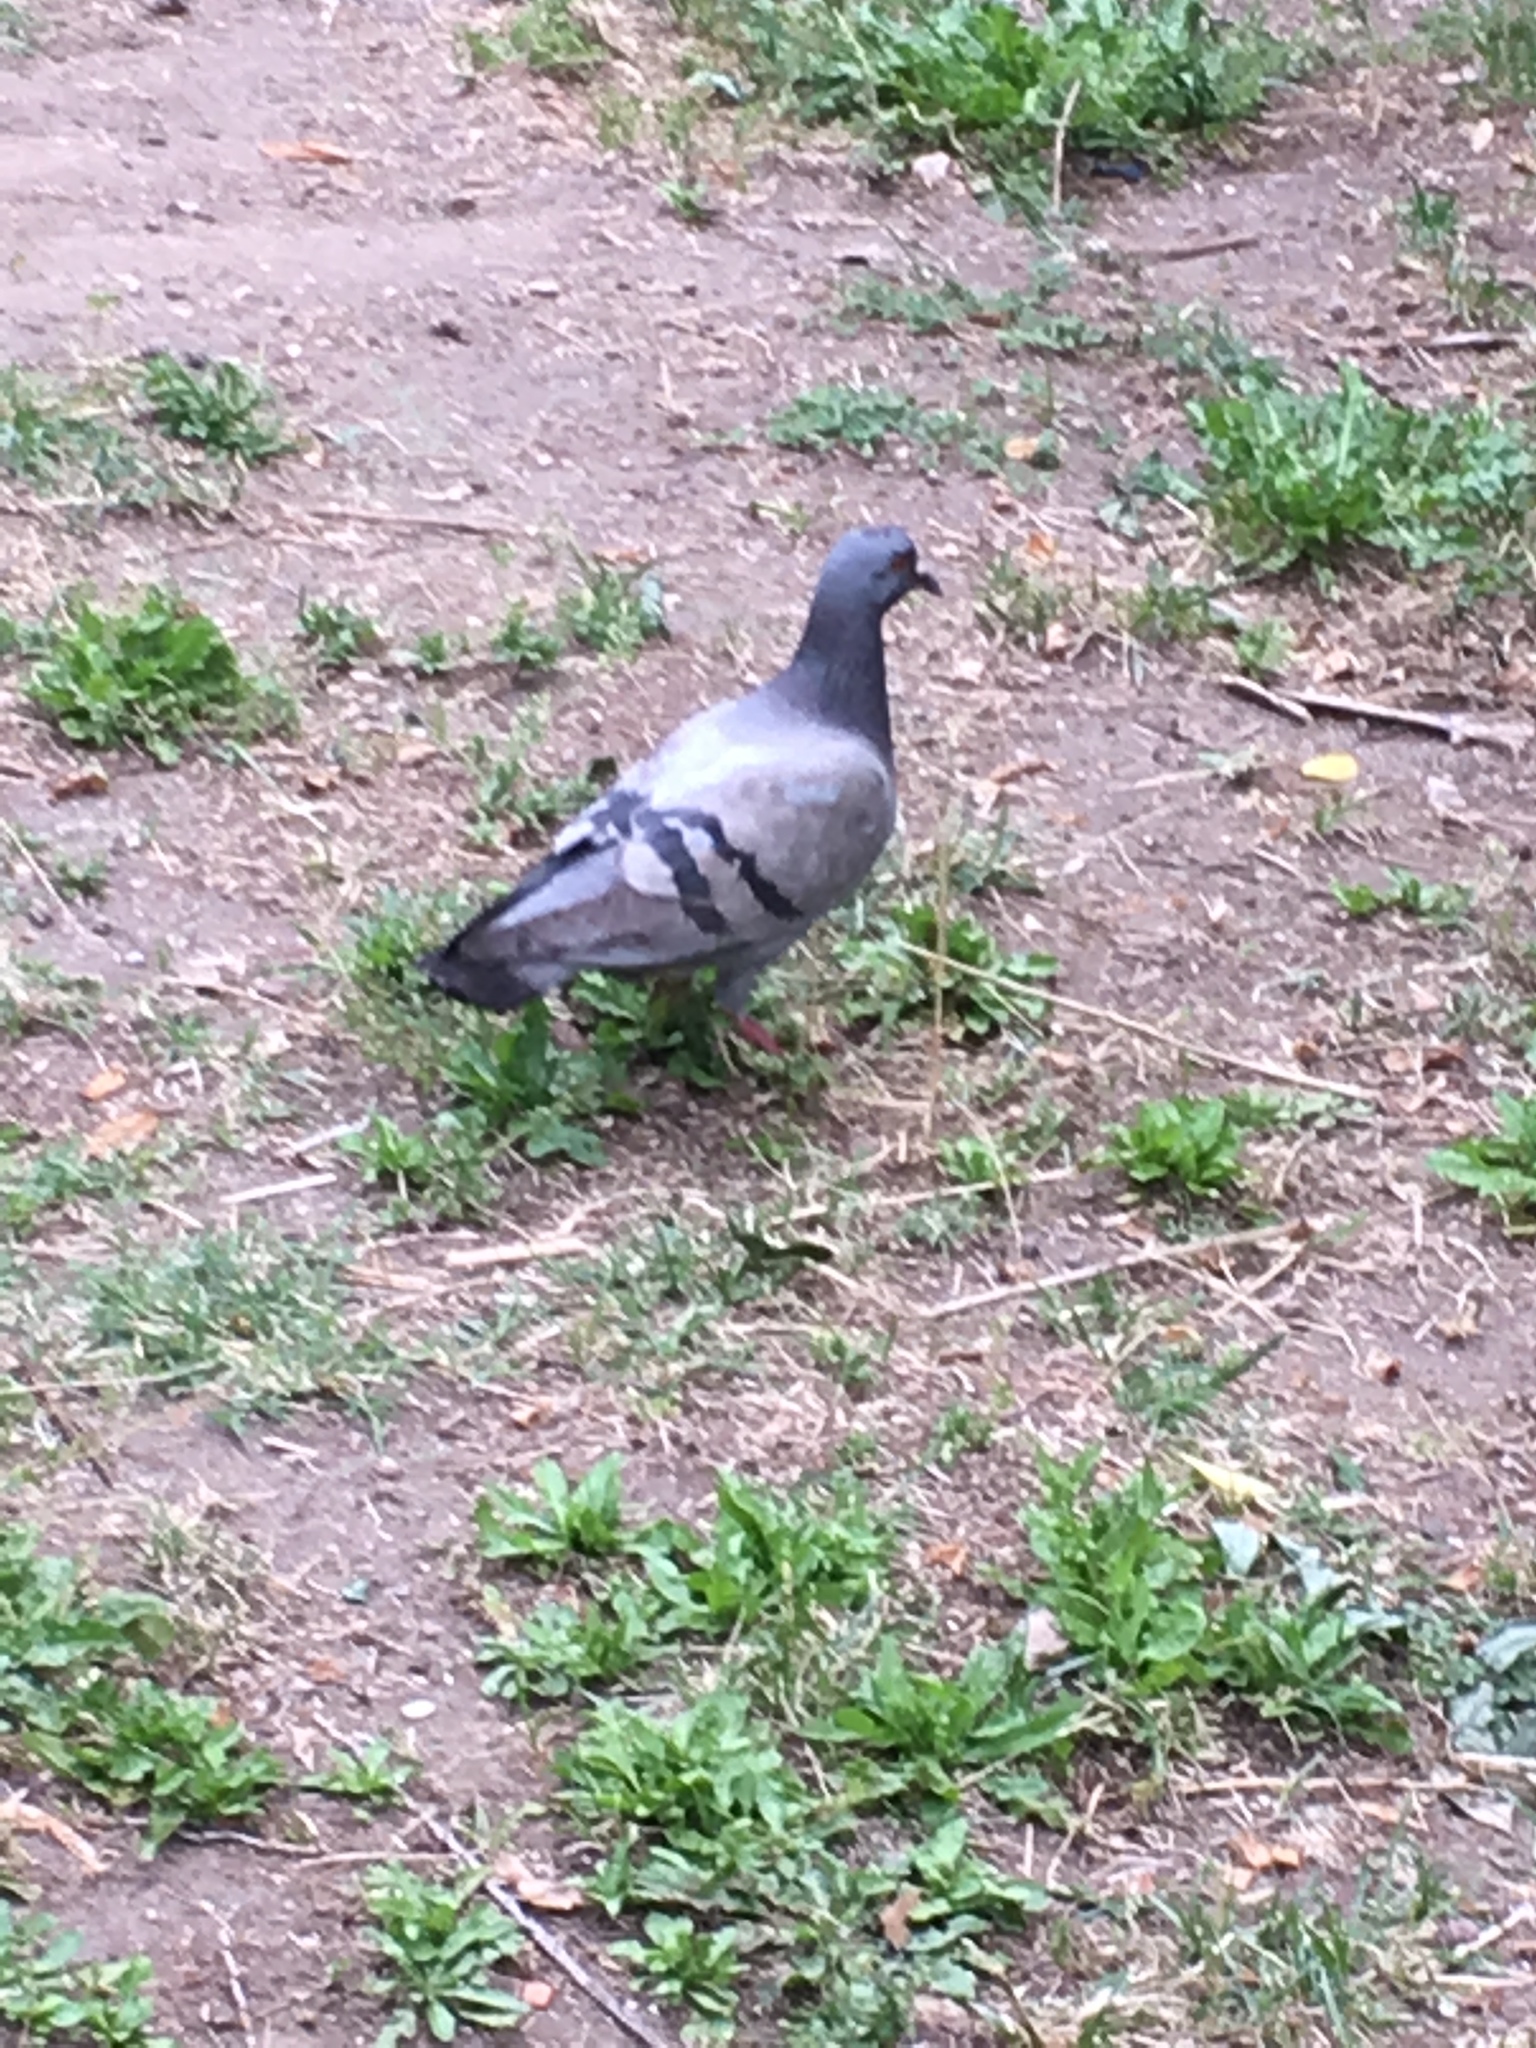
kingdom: Animalia
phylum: Chordata
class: Aves
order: Columbiformes
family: Columbidae
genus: Columba
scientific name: Columba livia
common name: Rock pigeon
